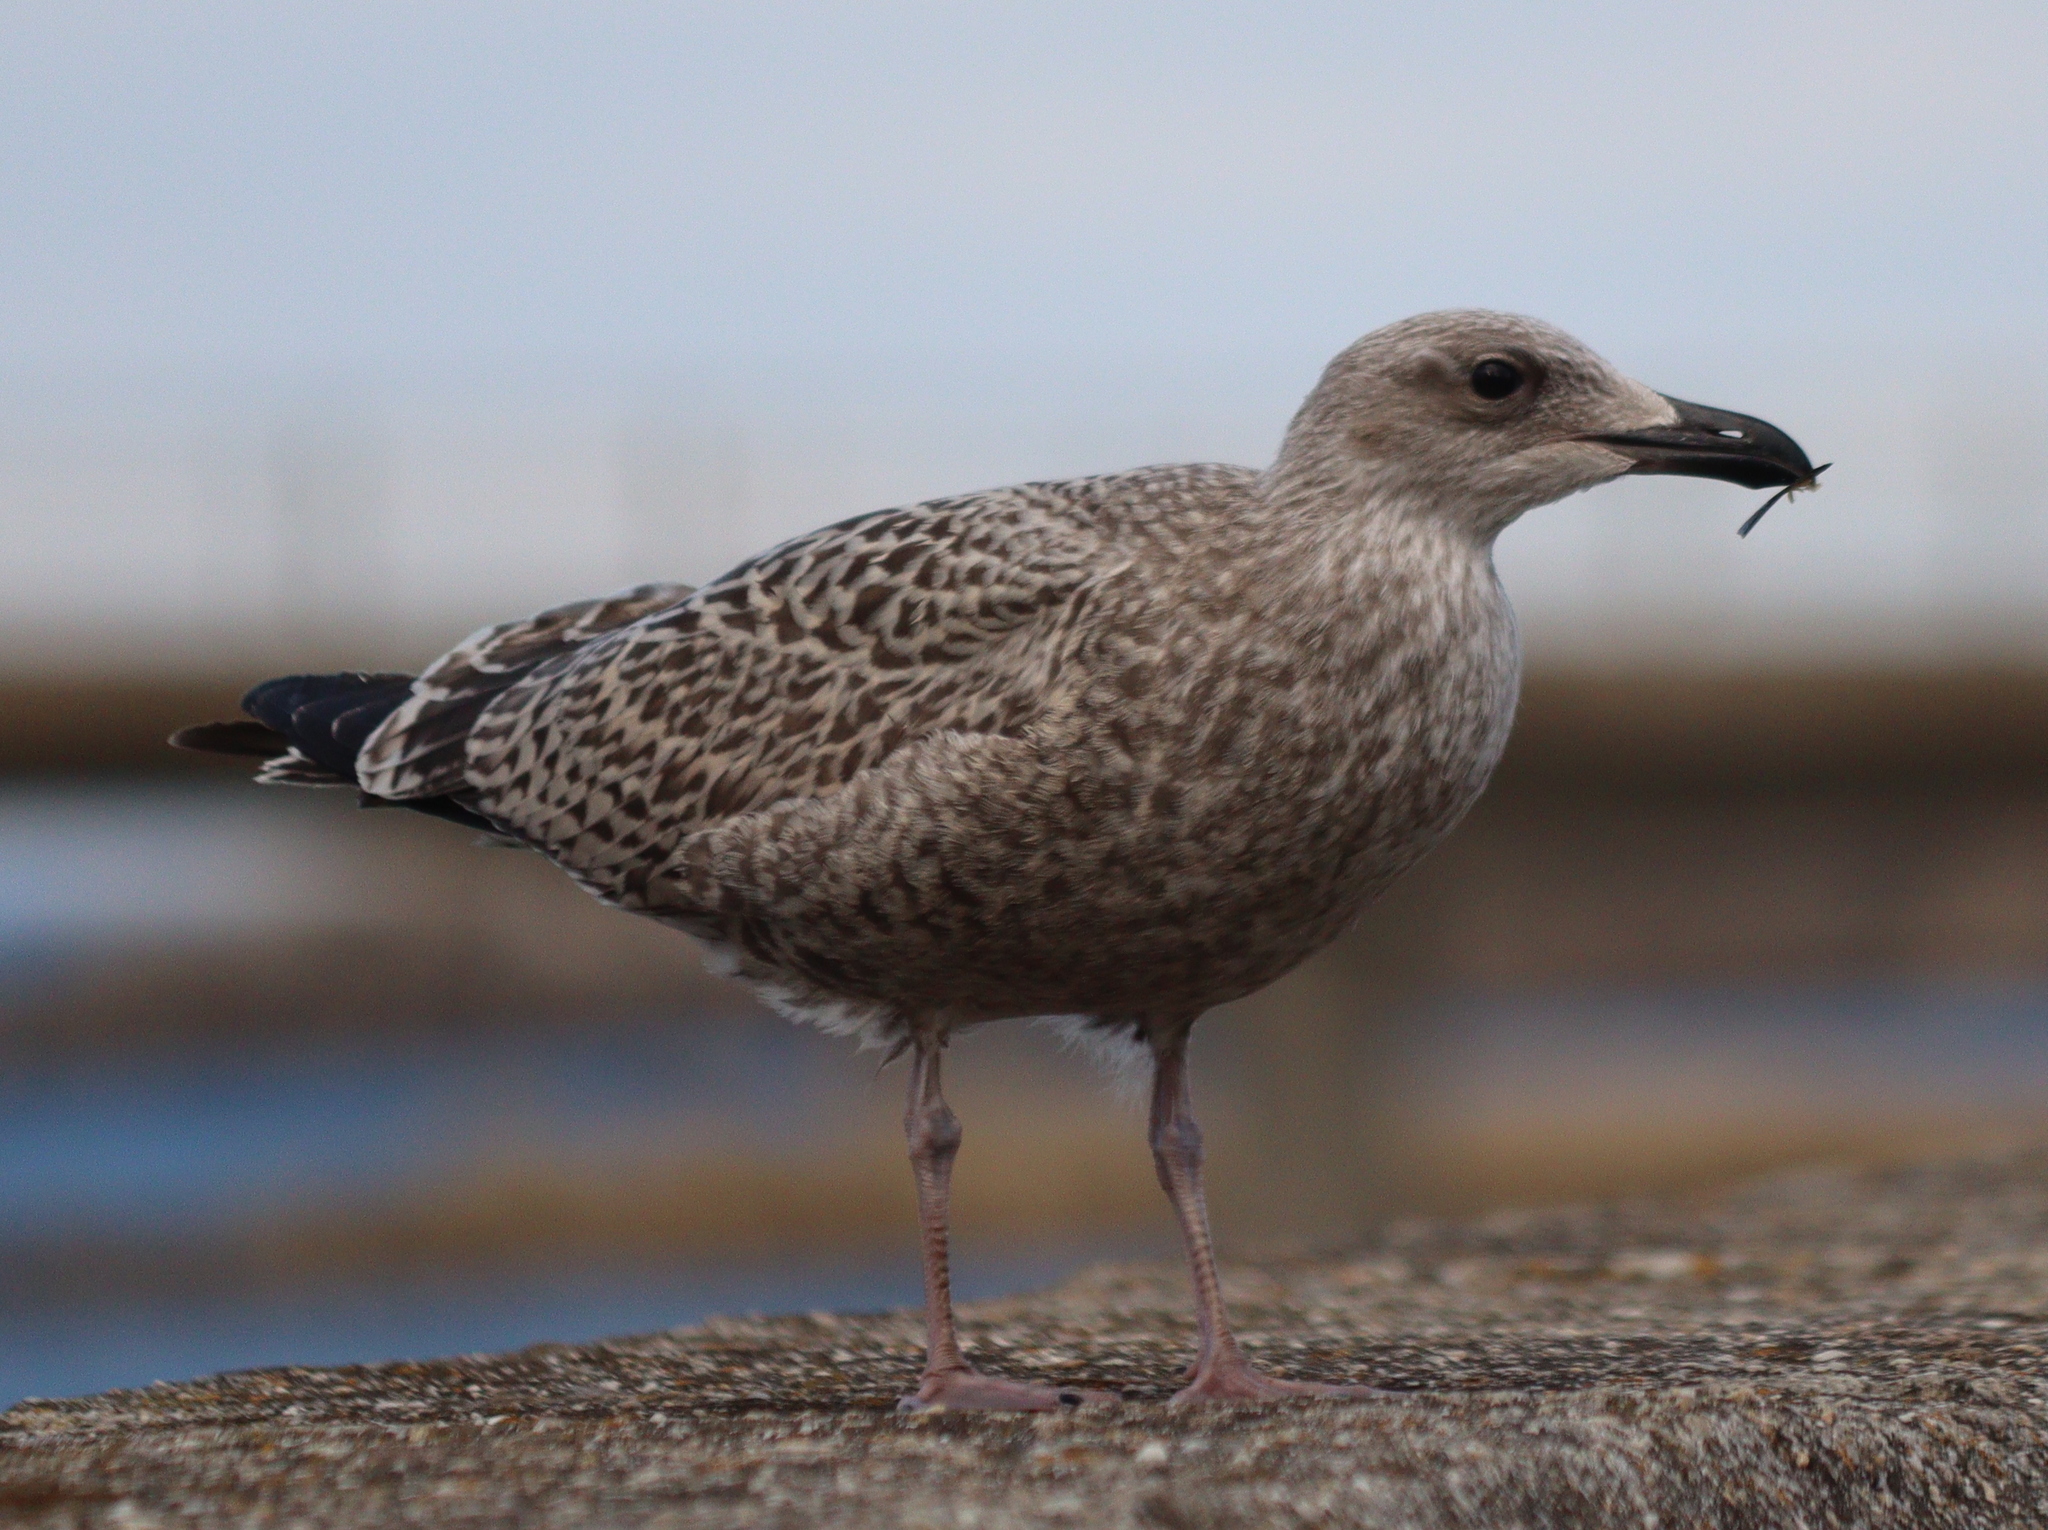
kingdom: Animalia
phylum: Chordata
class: Aves
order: Charadriiformes
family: Laridae
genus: Larus
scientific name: Larus argentatus
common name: Herring gull
